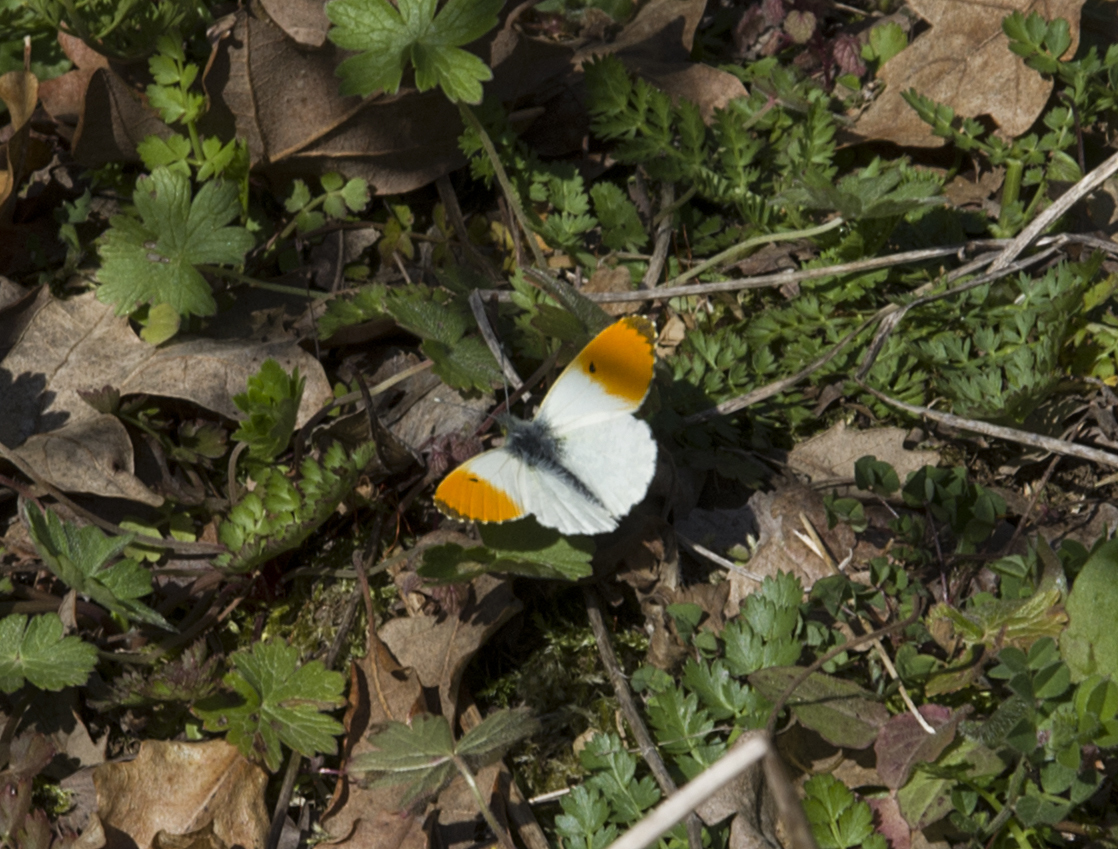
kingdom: Animalia
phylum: Arthropoda
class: Insecta
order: Lepidoptera
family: Pieridae
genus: Anthocharis
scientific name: Anthocharis cardamines
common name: Orange-tip
